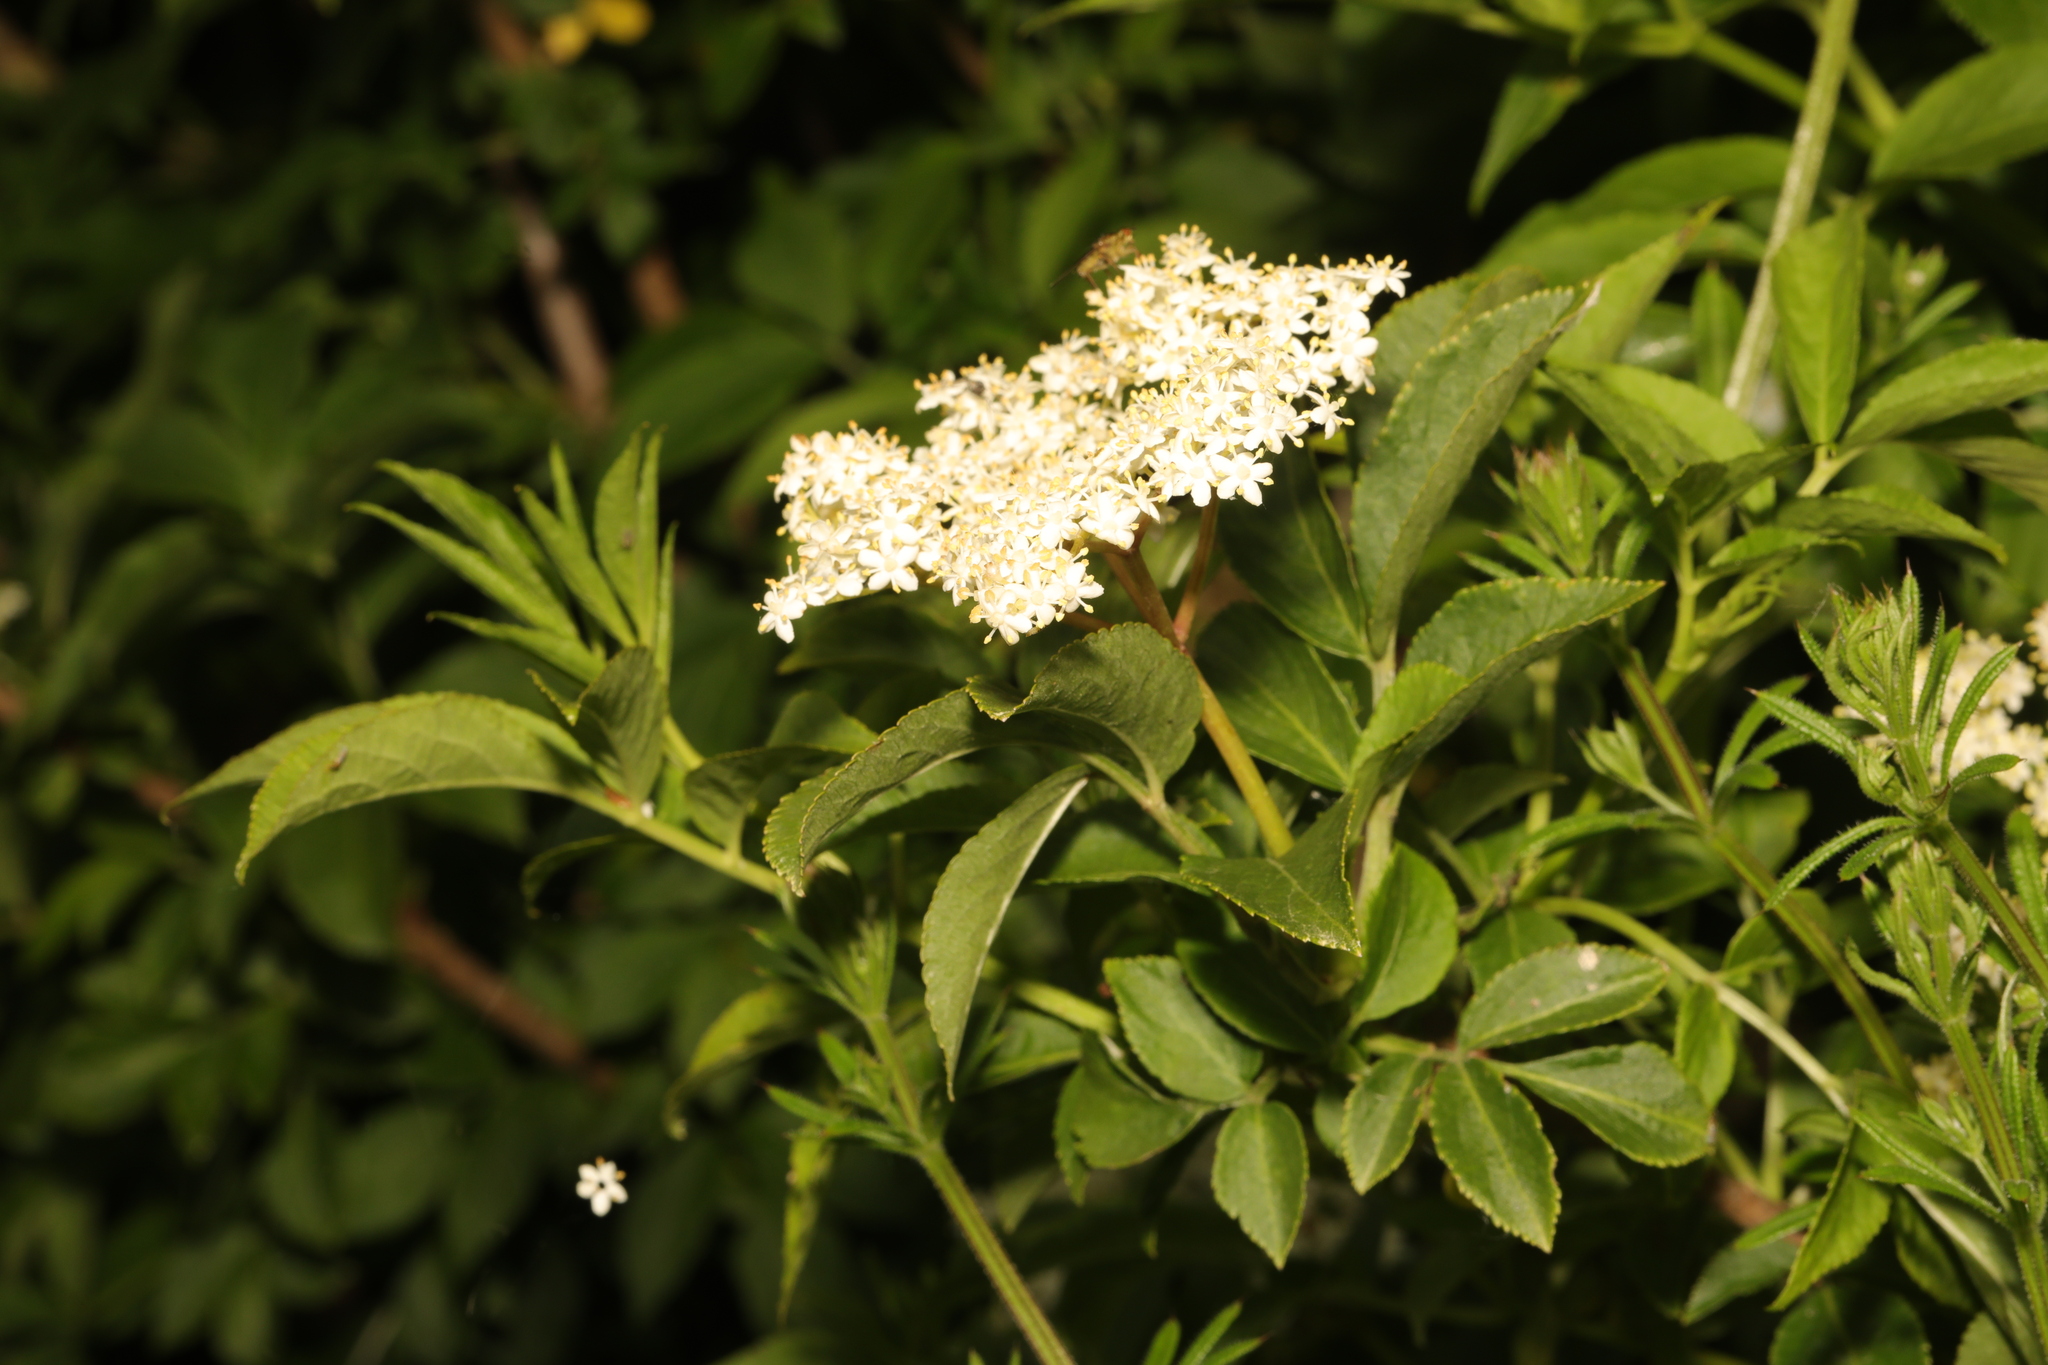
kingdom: Plantae
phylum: Tracheophyta
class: Magnoliopsida
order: Dipsacales
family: Viburnaceae
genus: Sambucus
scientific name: Sambucus nigra
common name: Elder
